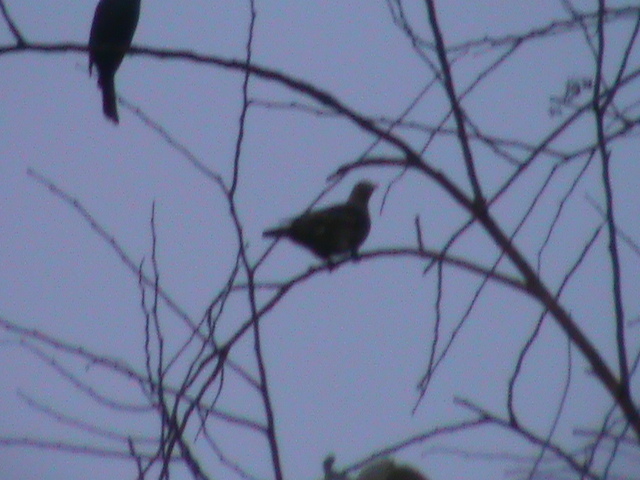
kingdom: Animalia
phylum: Chordata
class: Aves
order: Columbiformes
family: Columbidae
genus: Treron
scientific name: Treron affinis
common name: Grey-fronted green pigeon
